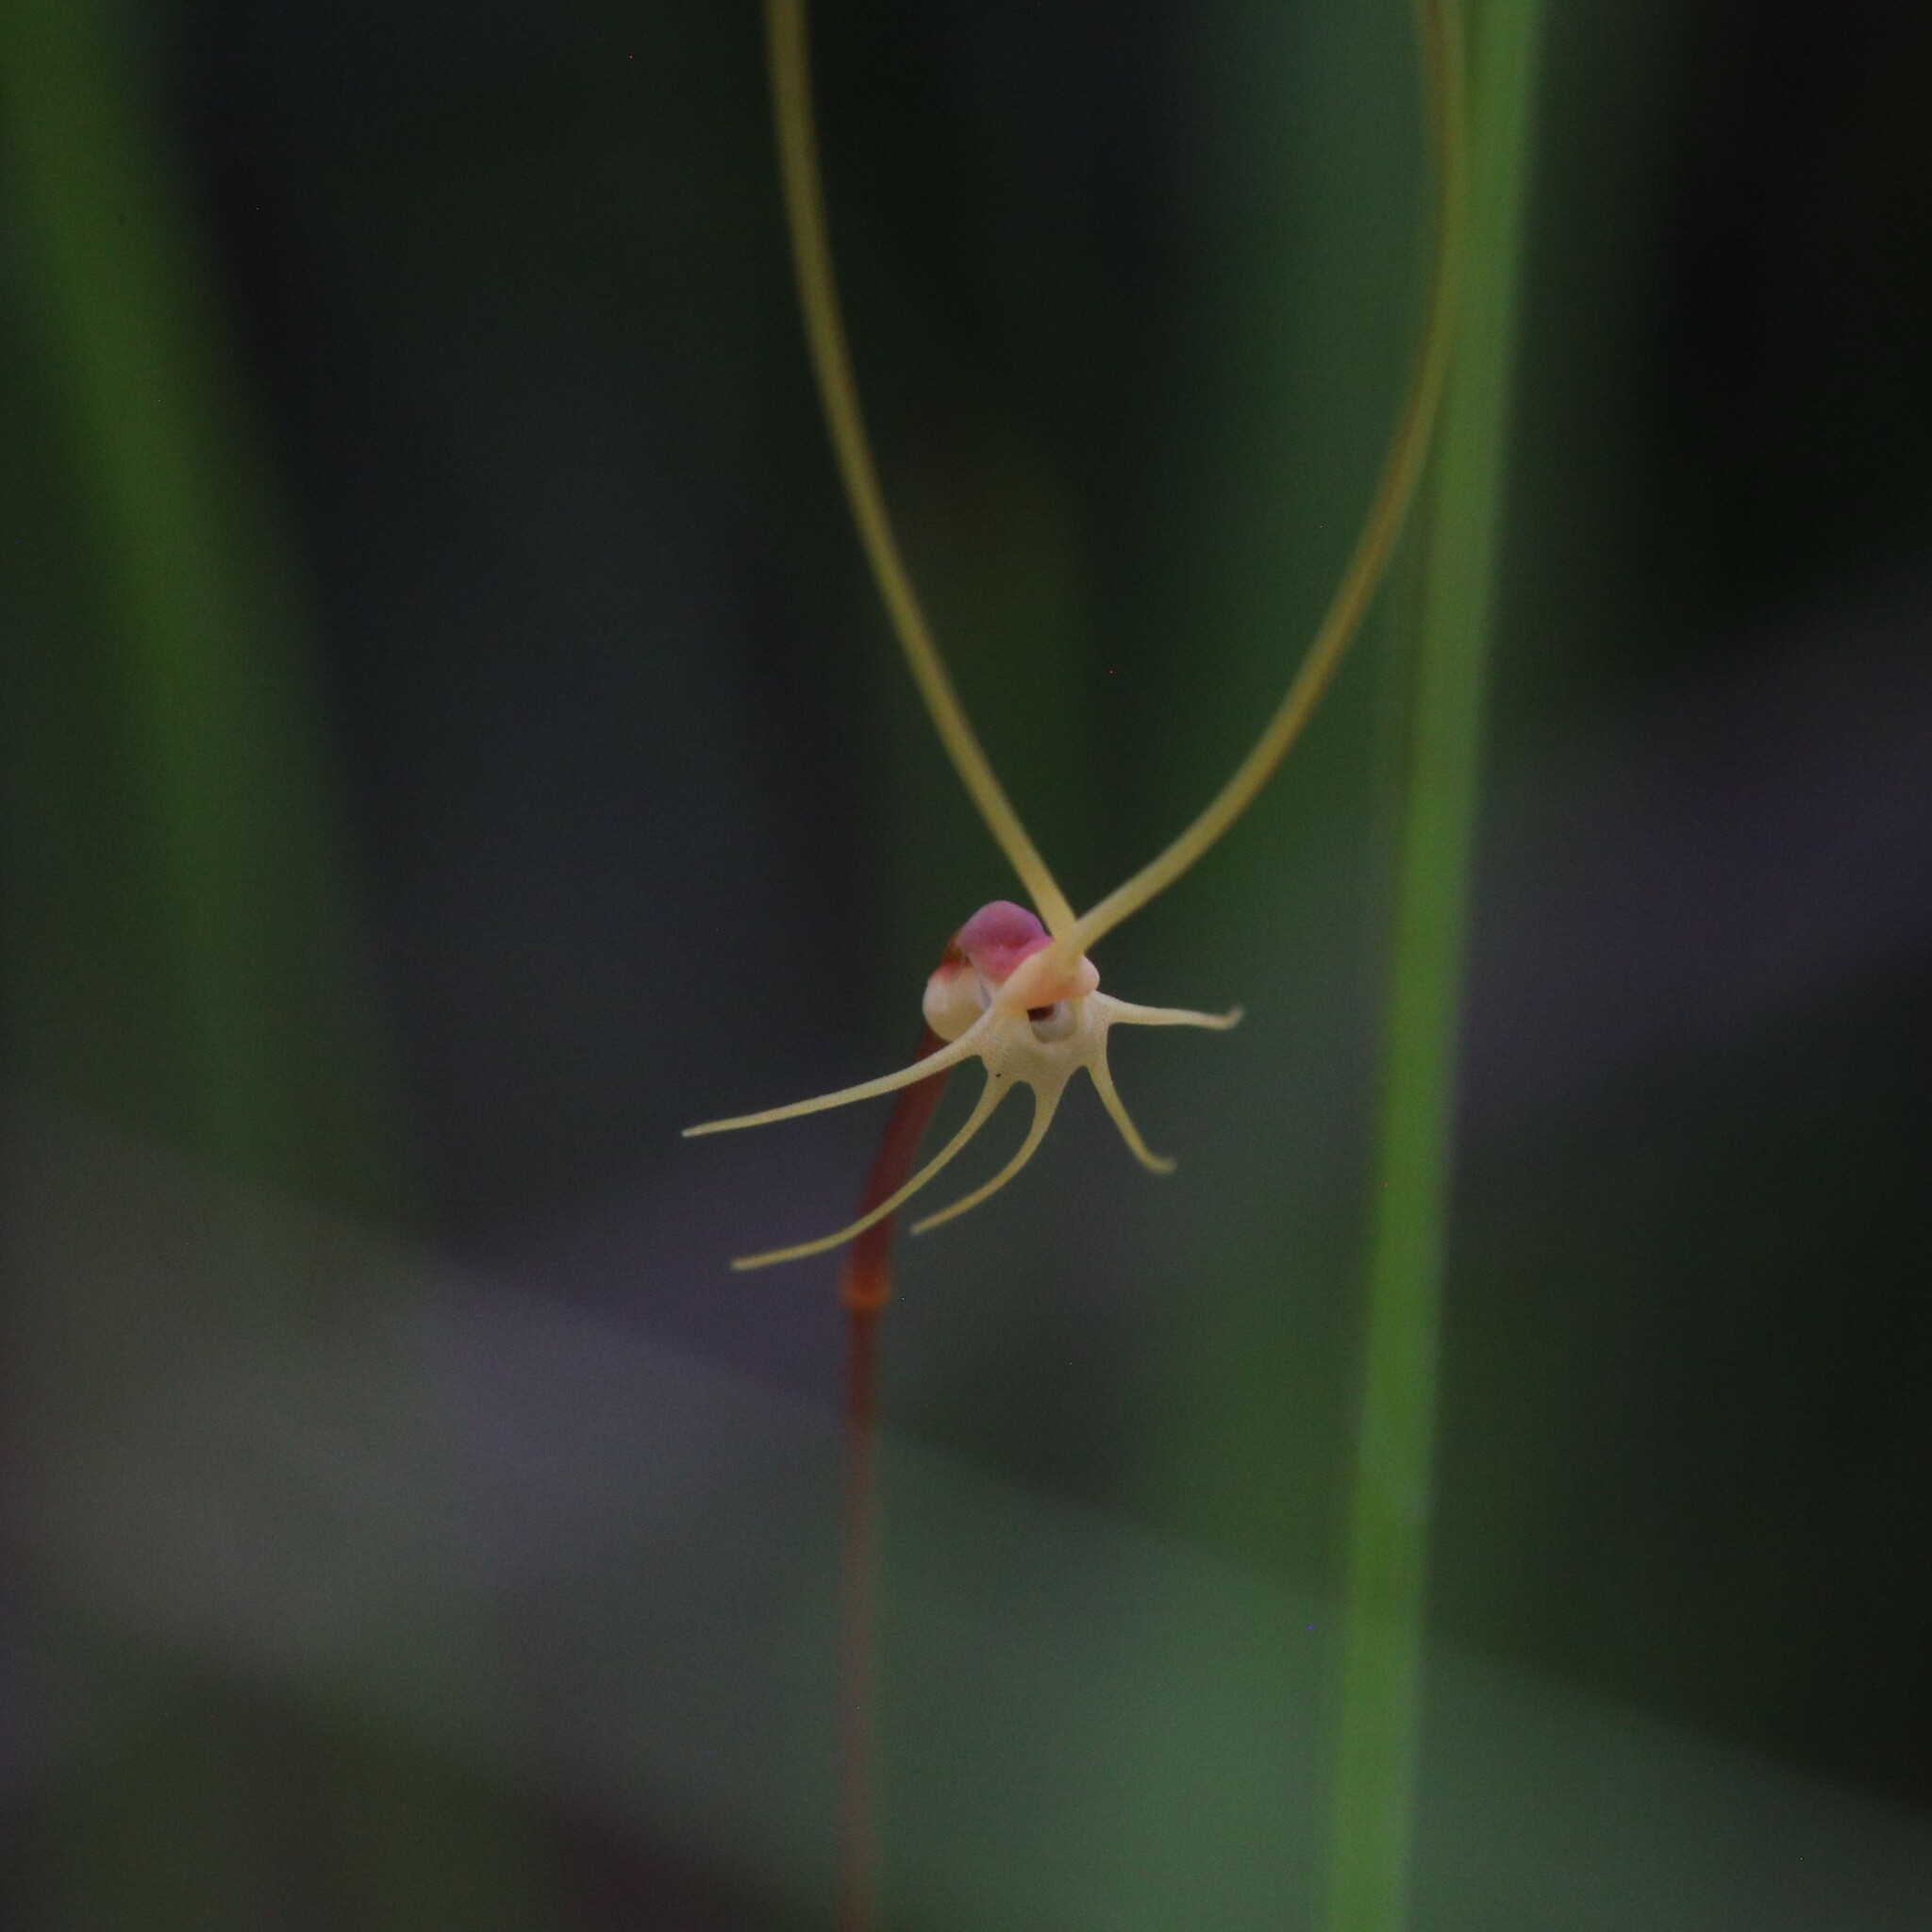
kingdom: Plantae
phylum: Tracheophyta
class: Magnoliopsida
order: Lamiales
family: Lentibulariaceae
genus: Utricularia
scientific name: Utricularia capilliflora
